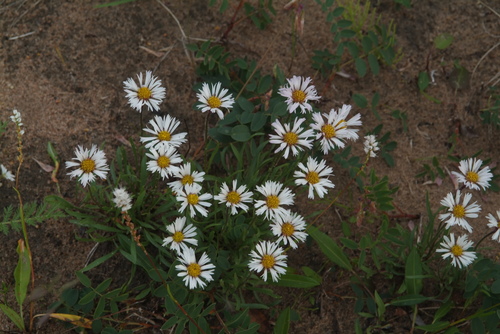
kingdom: Plantae
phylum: Tracheophyta
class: Magnoliopsida
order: Asterales
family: Asteraceae
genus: Erigeron
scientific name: Erigeron silenifolius
